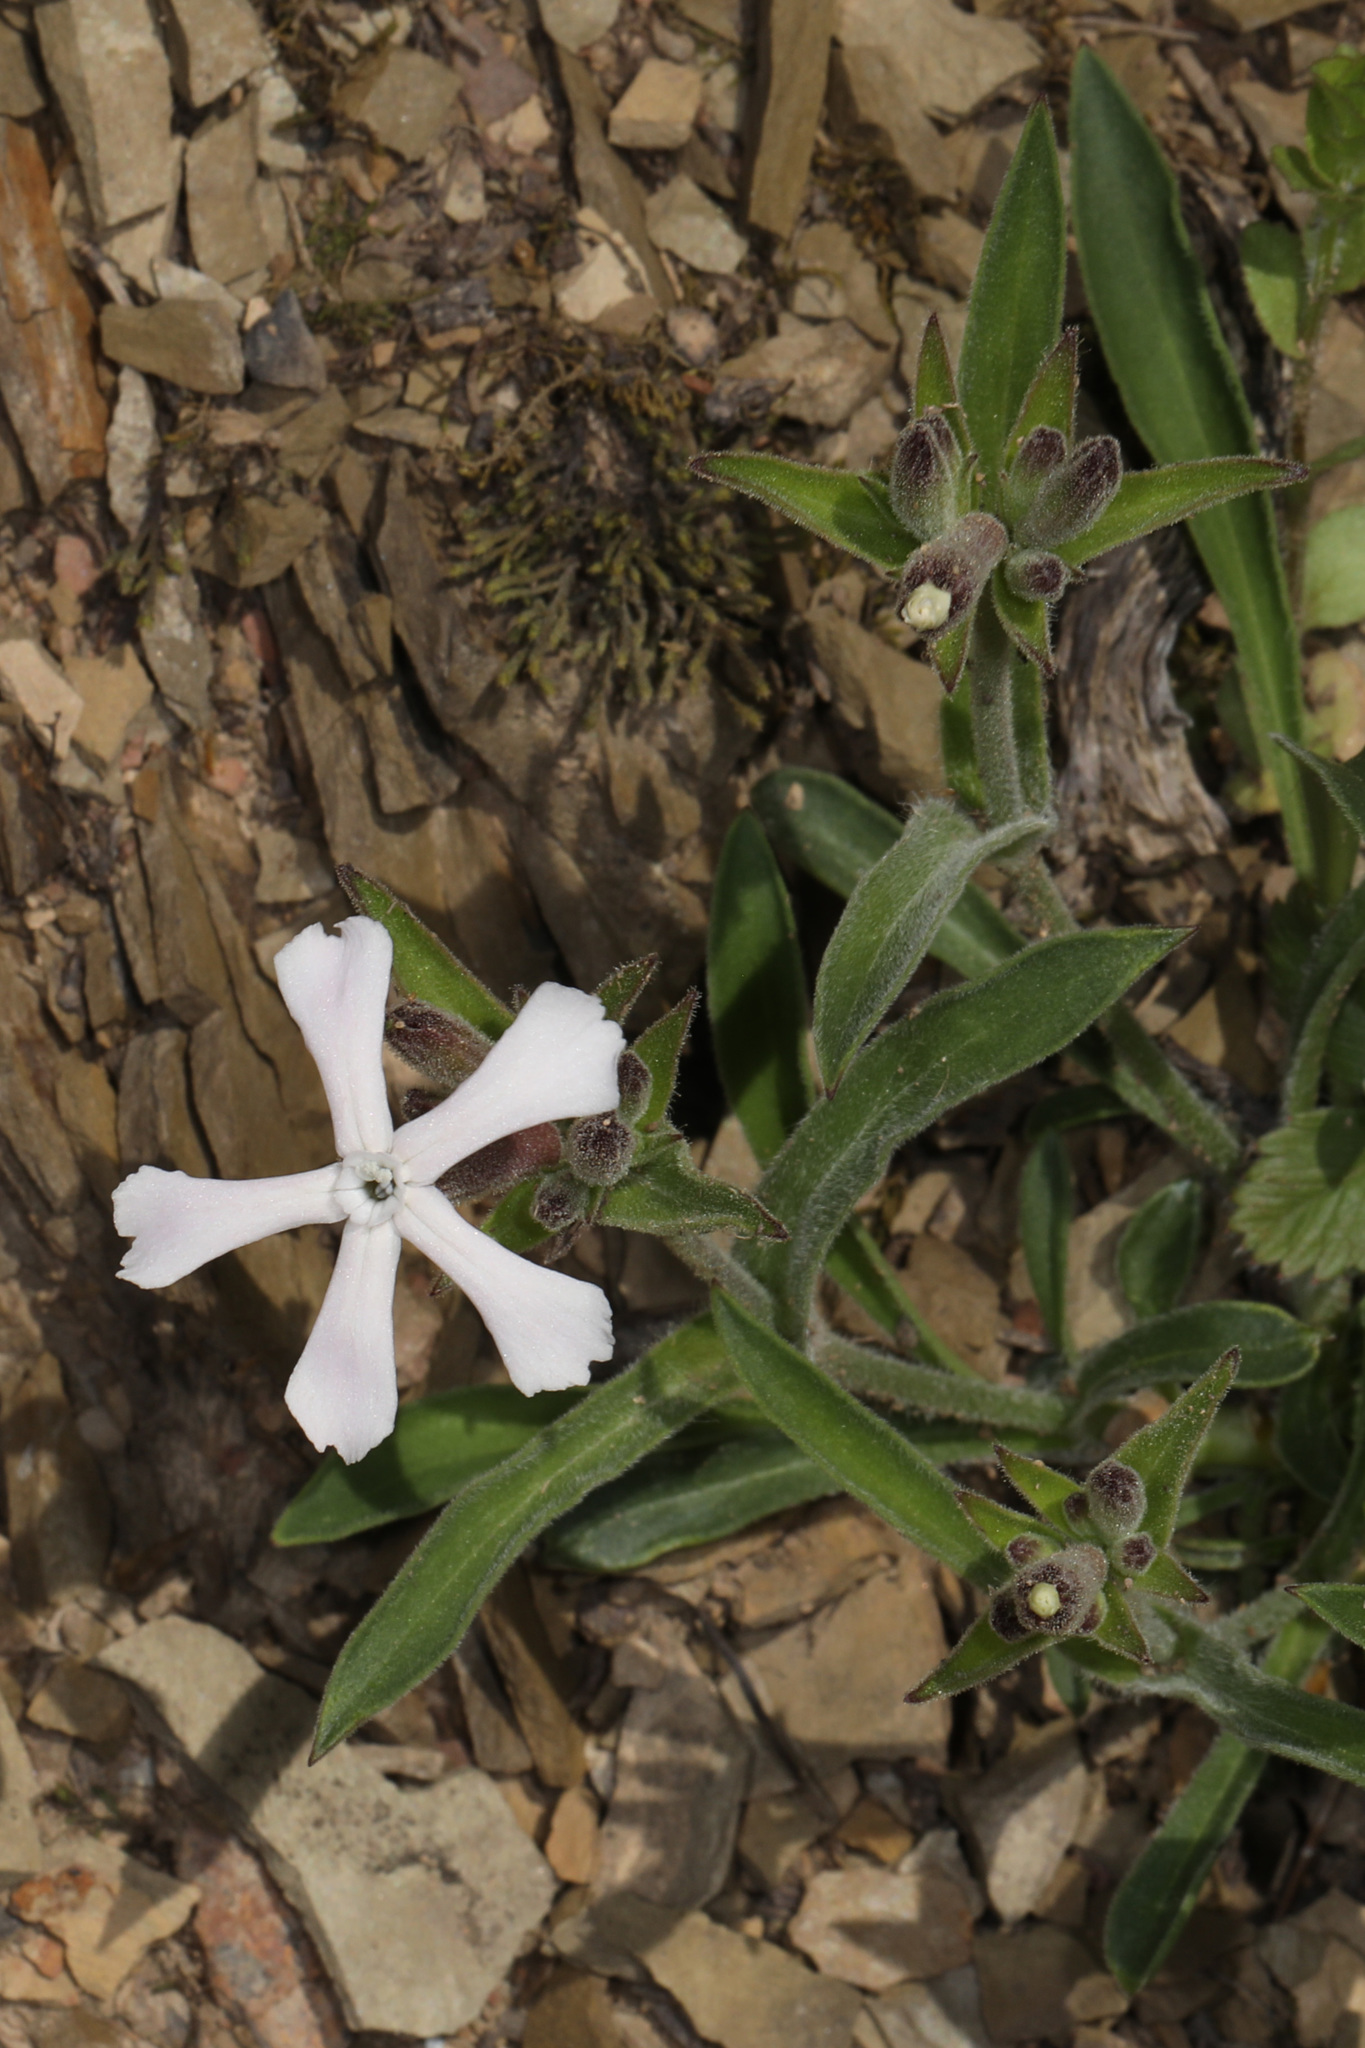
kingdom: Plantae
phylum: Tracheophyta
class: Magnoliopsida
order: Caryophyllales
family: Caryophyllaceae
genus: Silene
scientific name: Silene caroliniana
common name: Sticky catchfly
